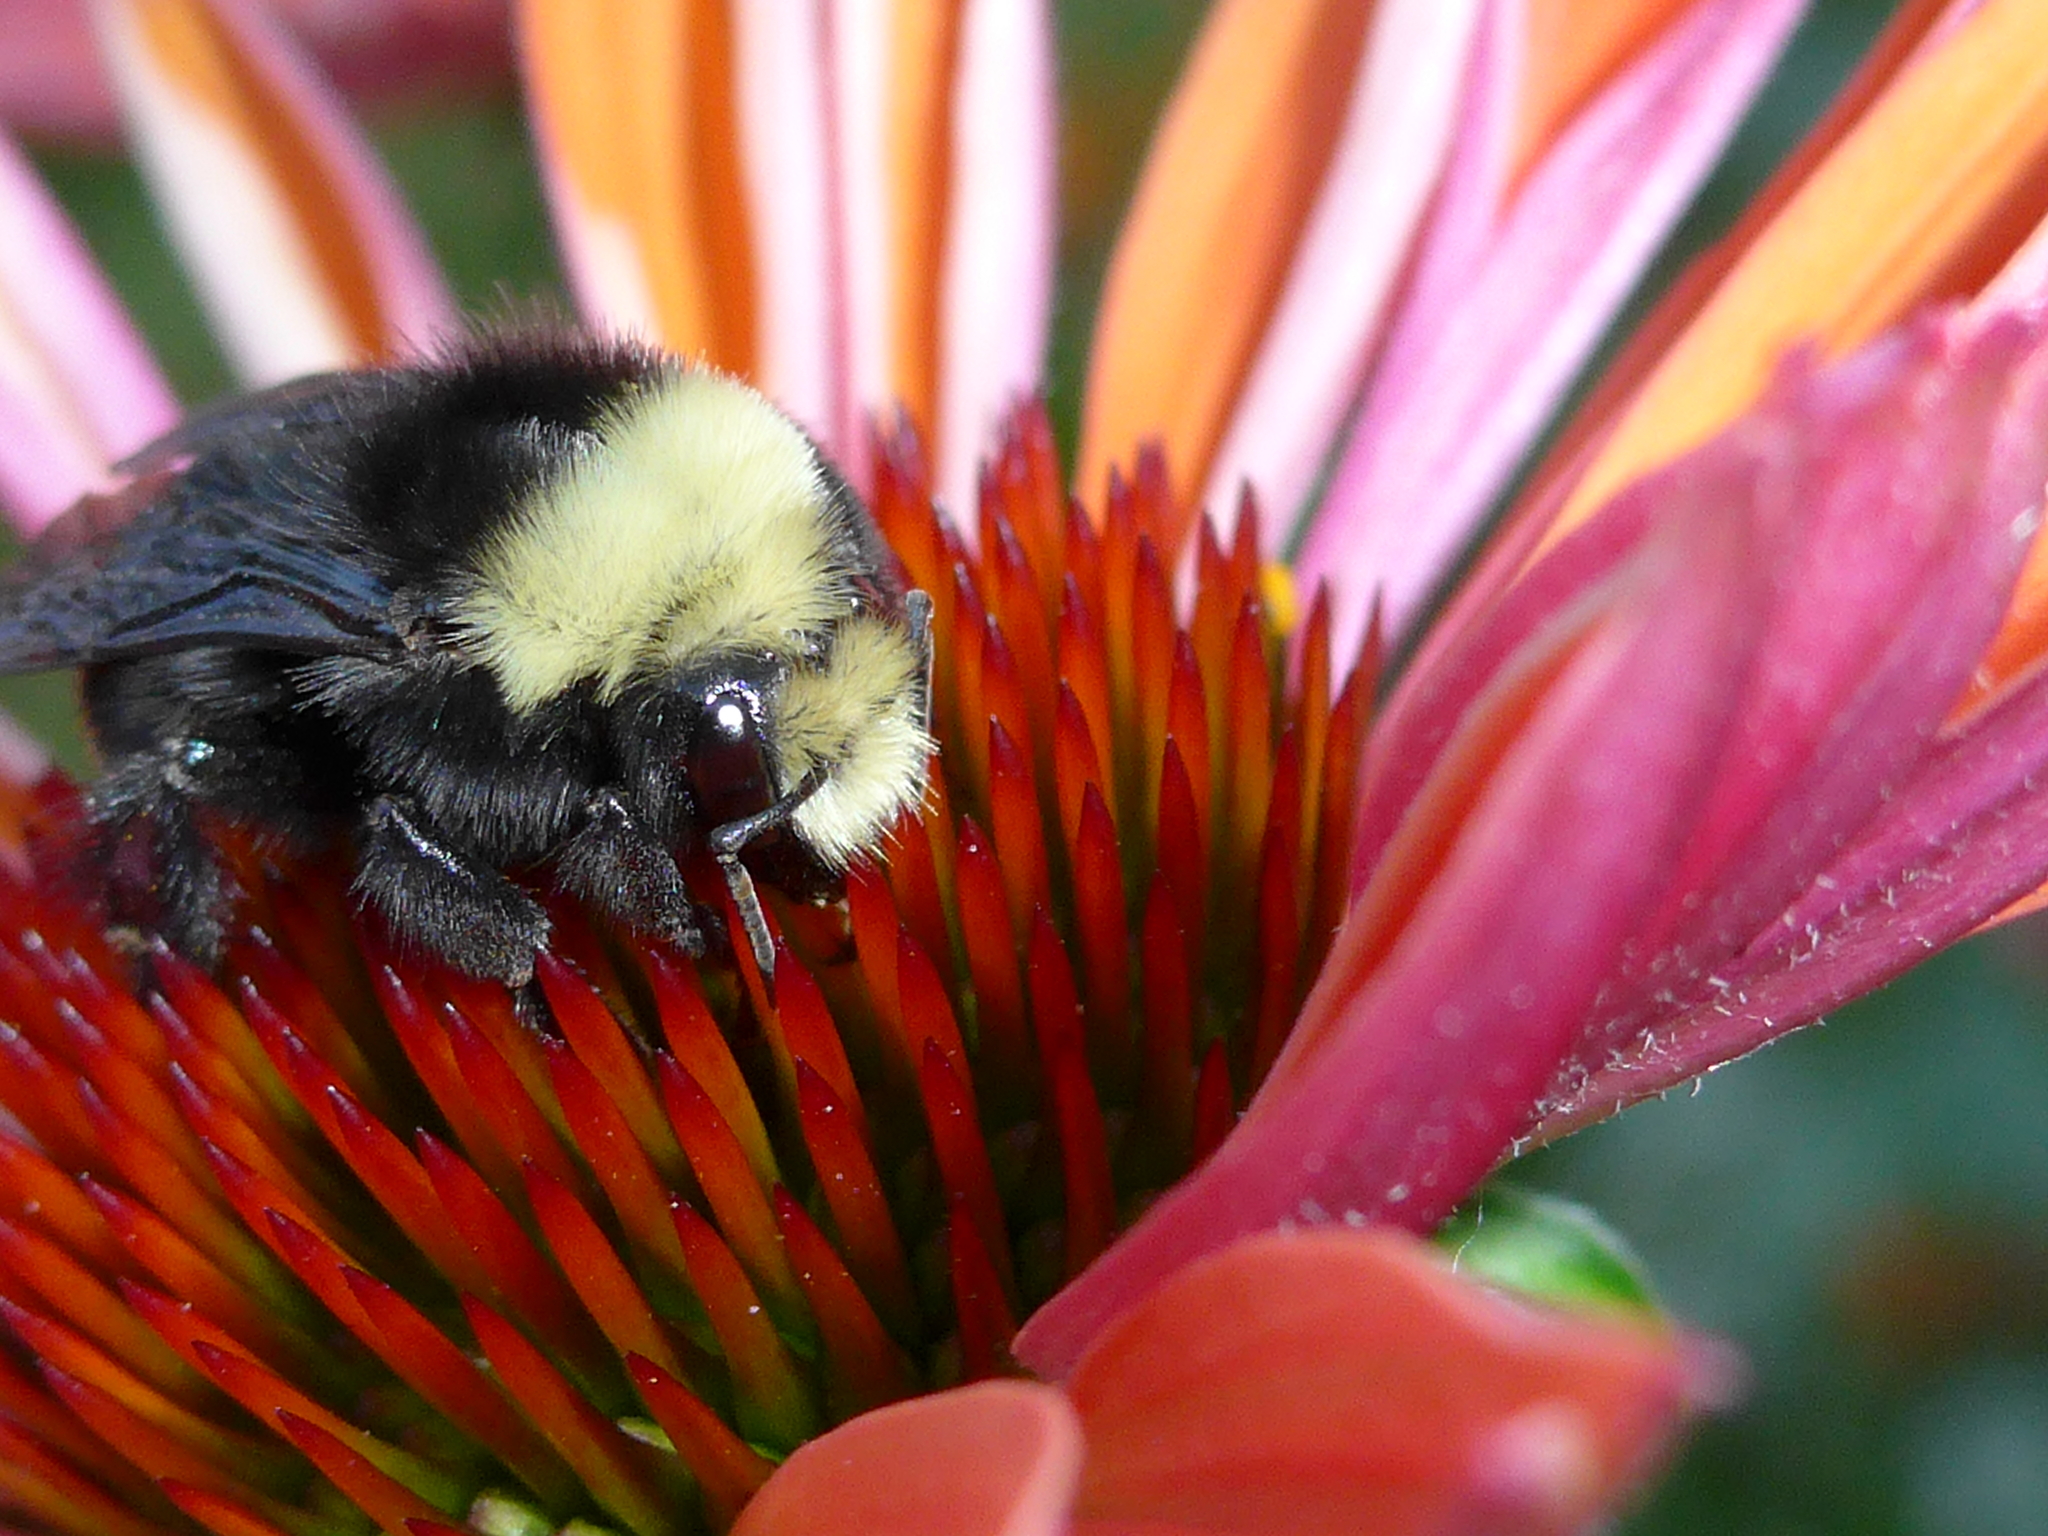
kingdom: Animalia
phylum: Arthropoda
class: Insecta
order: Hymenoptera
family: Apidae
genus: Bombus
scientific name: Bombus vosnesenskii
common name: Vosnesensky bumble bee
